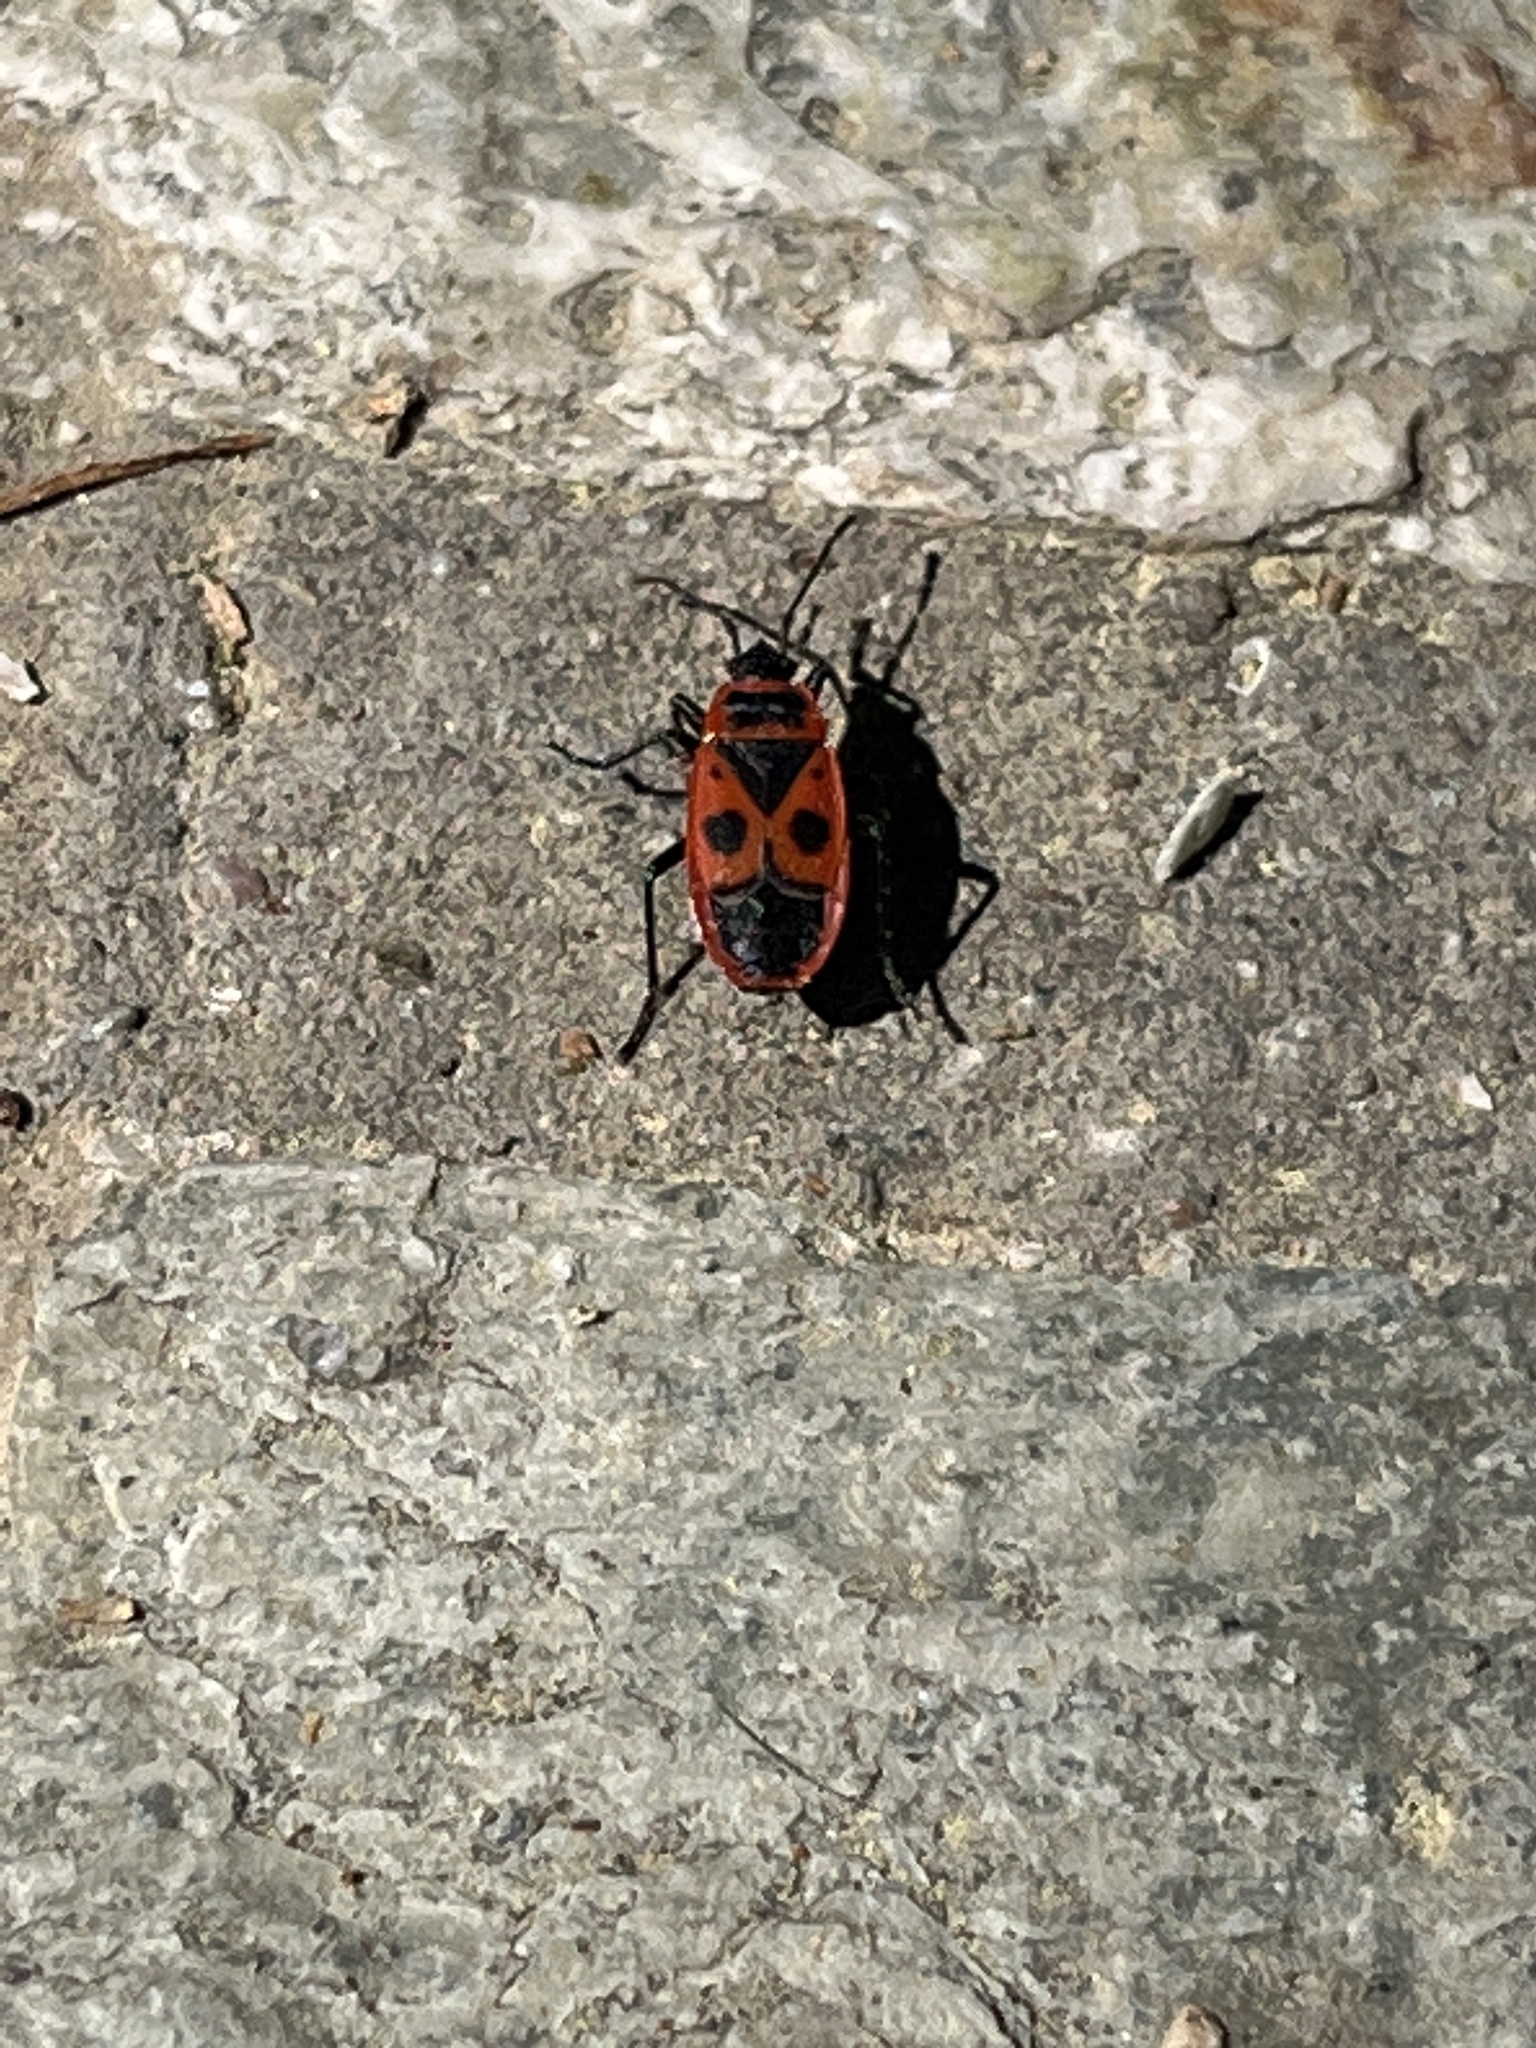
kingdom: Animalia
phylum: Arthropoda
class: Insecta
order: Hemiptera
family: Pyrrhocoridae
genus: Pyrrhocoris
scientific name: Pyrrhocoris apterus
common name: Firebug
